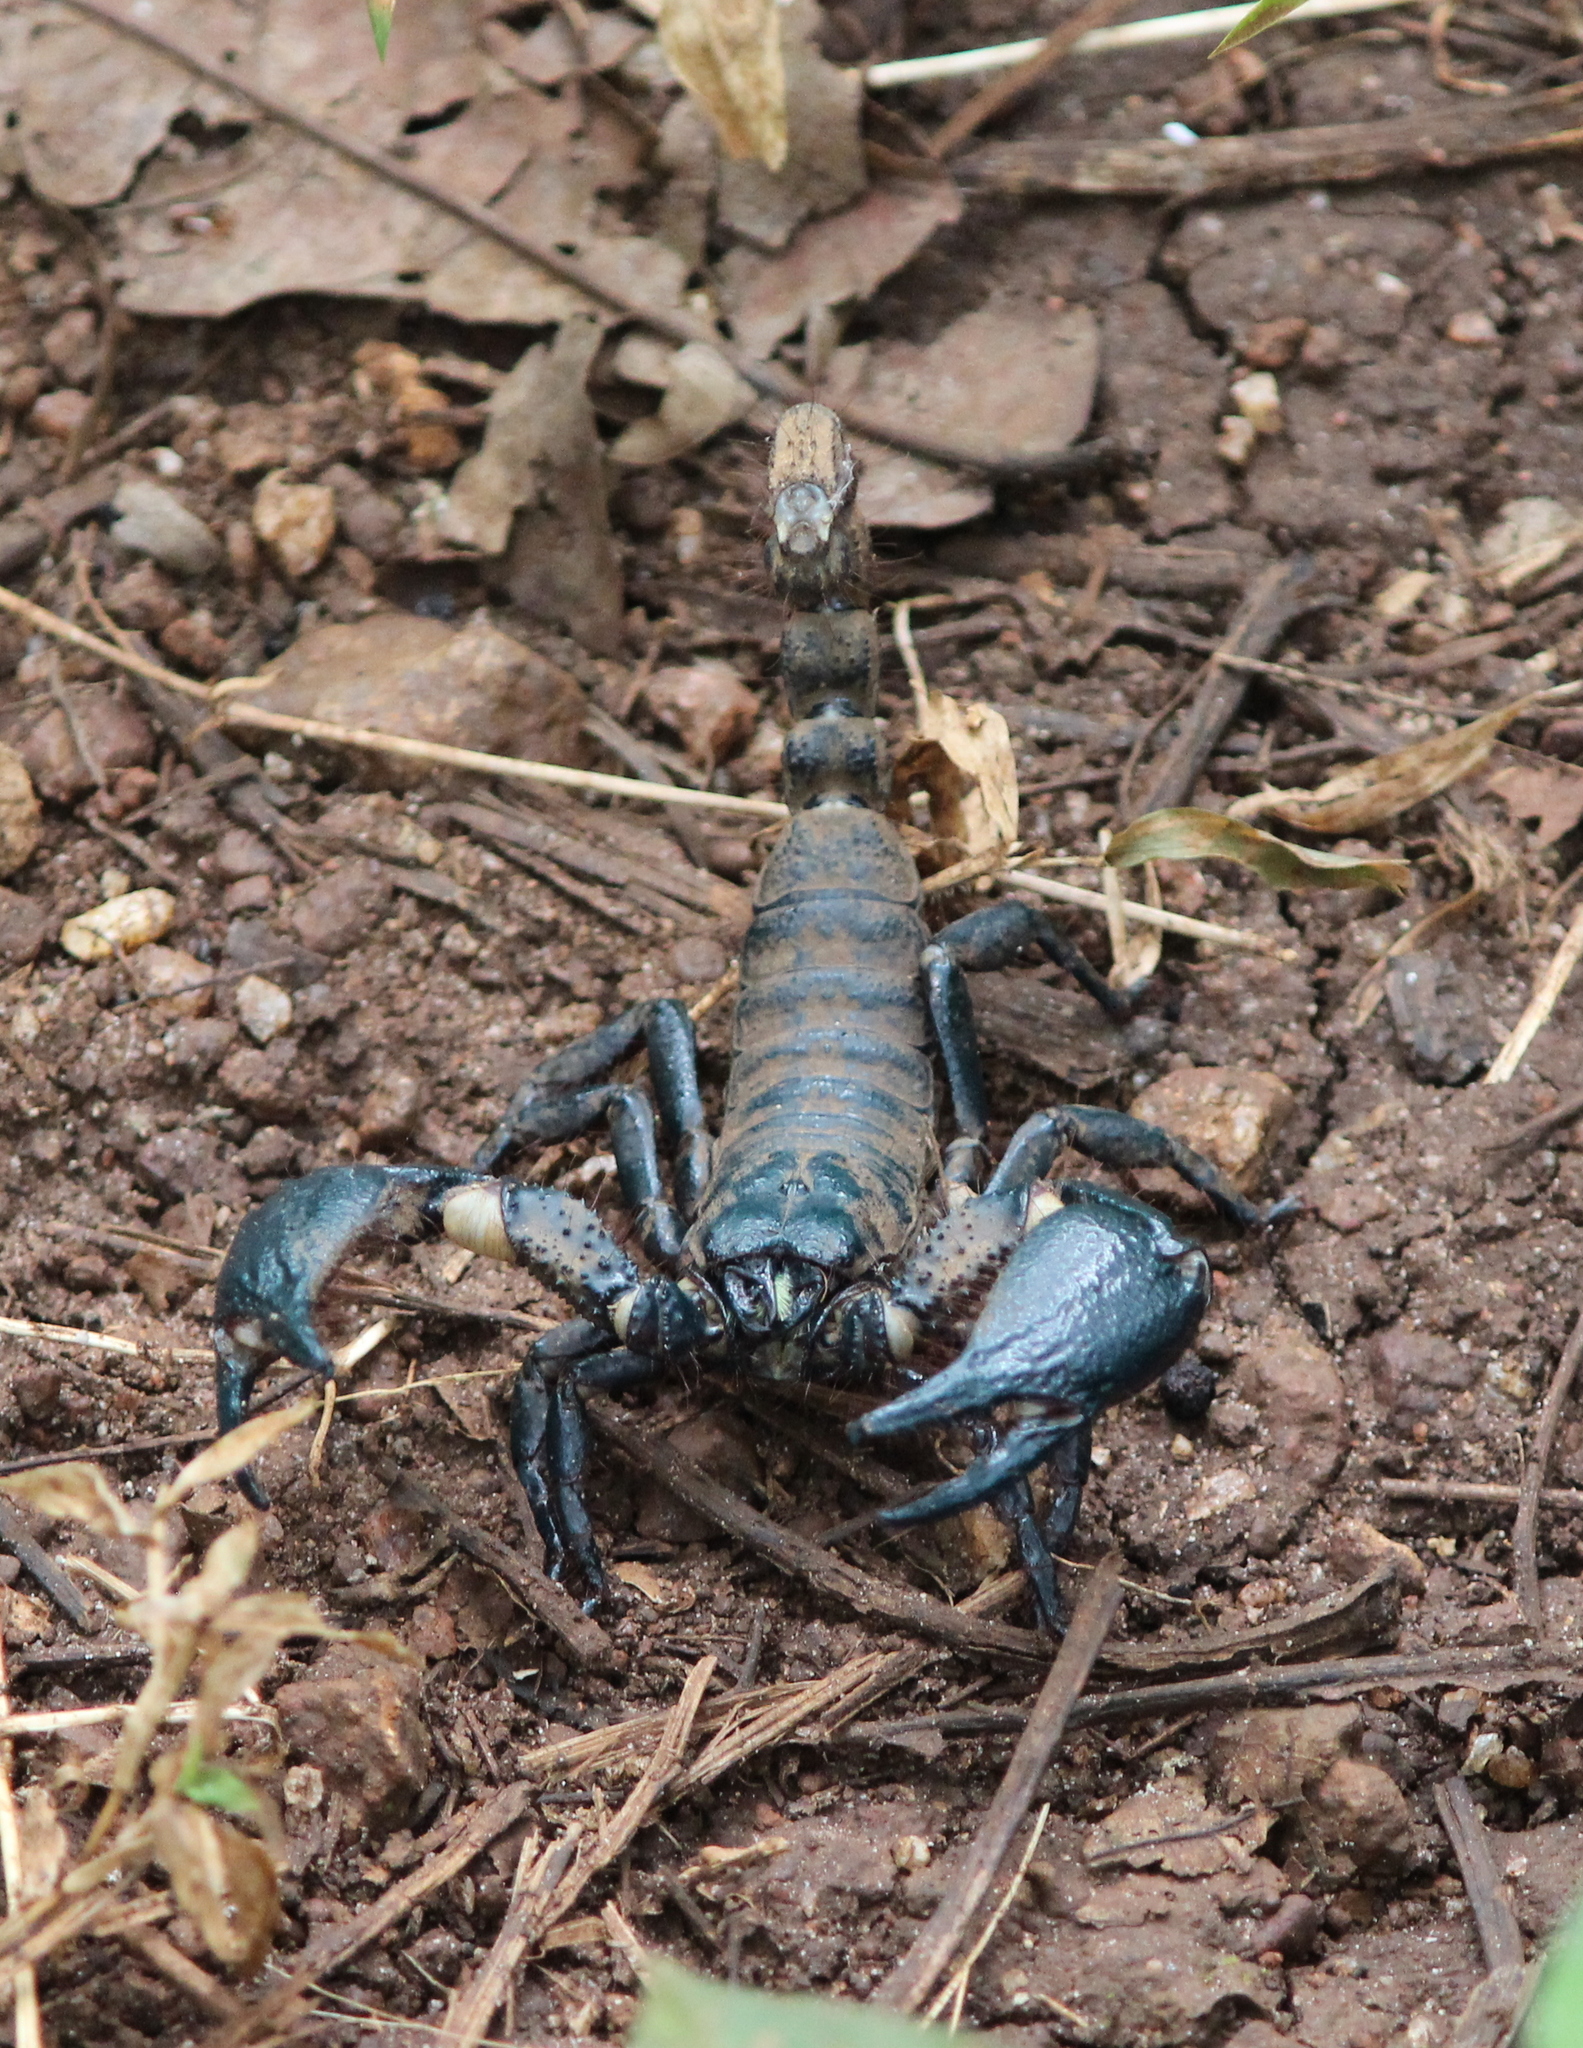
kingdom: Animalia
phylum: Arthropoda
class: Arachnida
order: Scorpiones
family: Scorpionidae
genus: Sahyadrimetrus
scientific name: Sahyadrimetrus scaber
